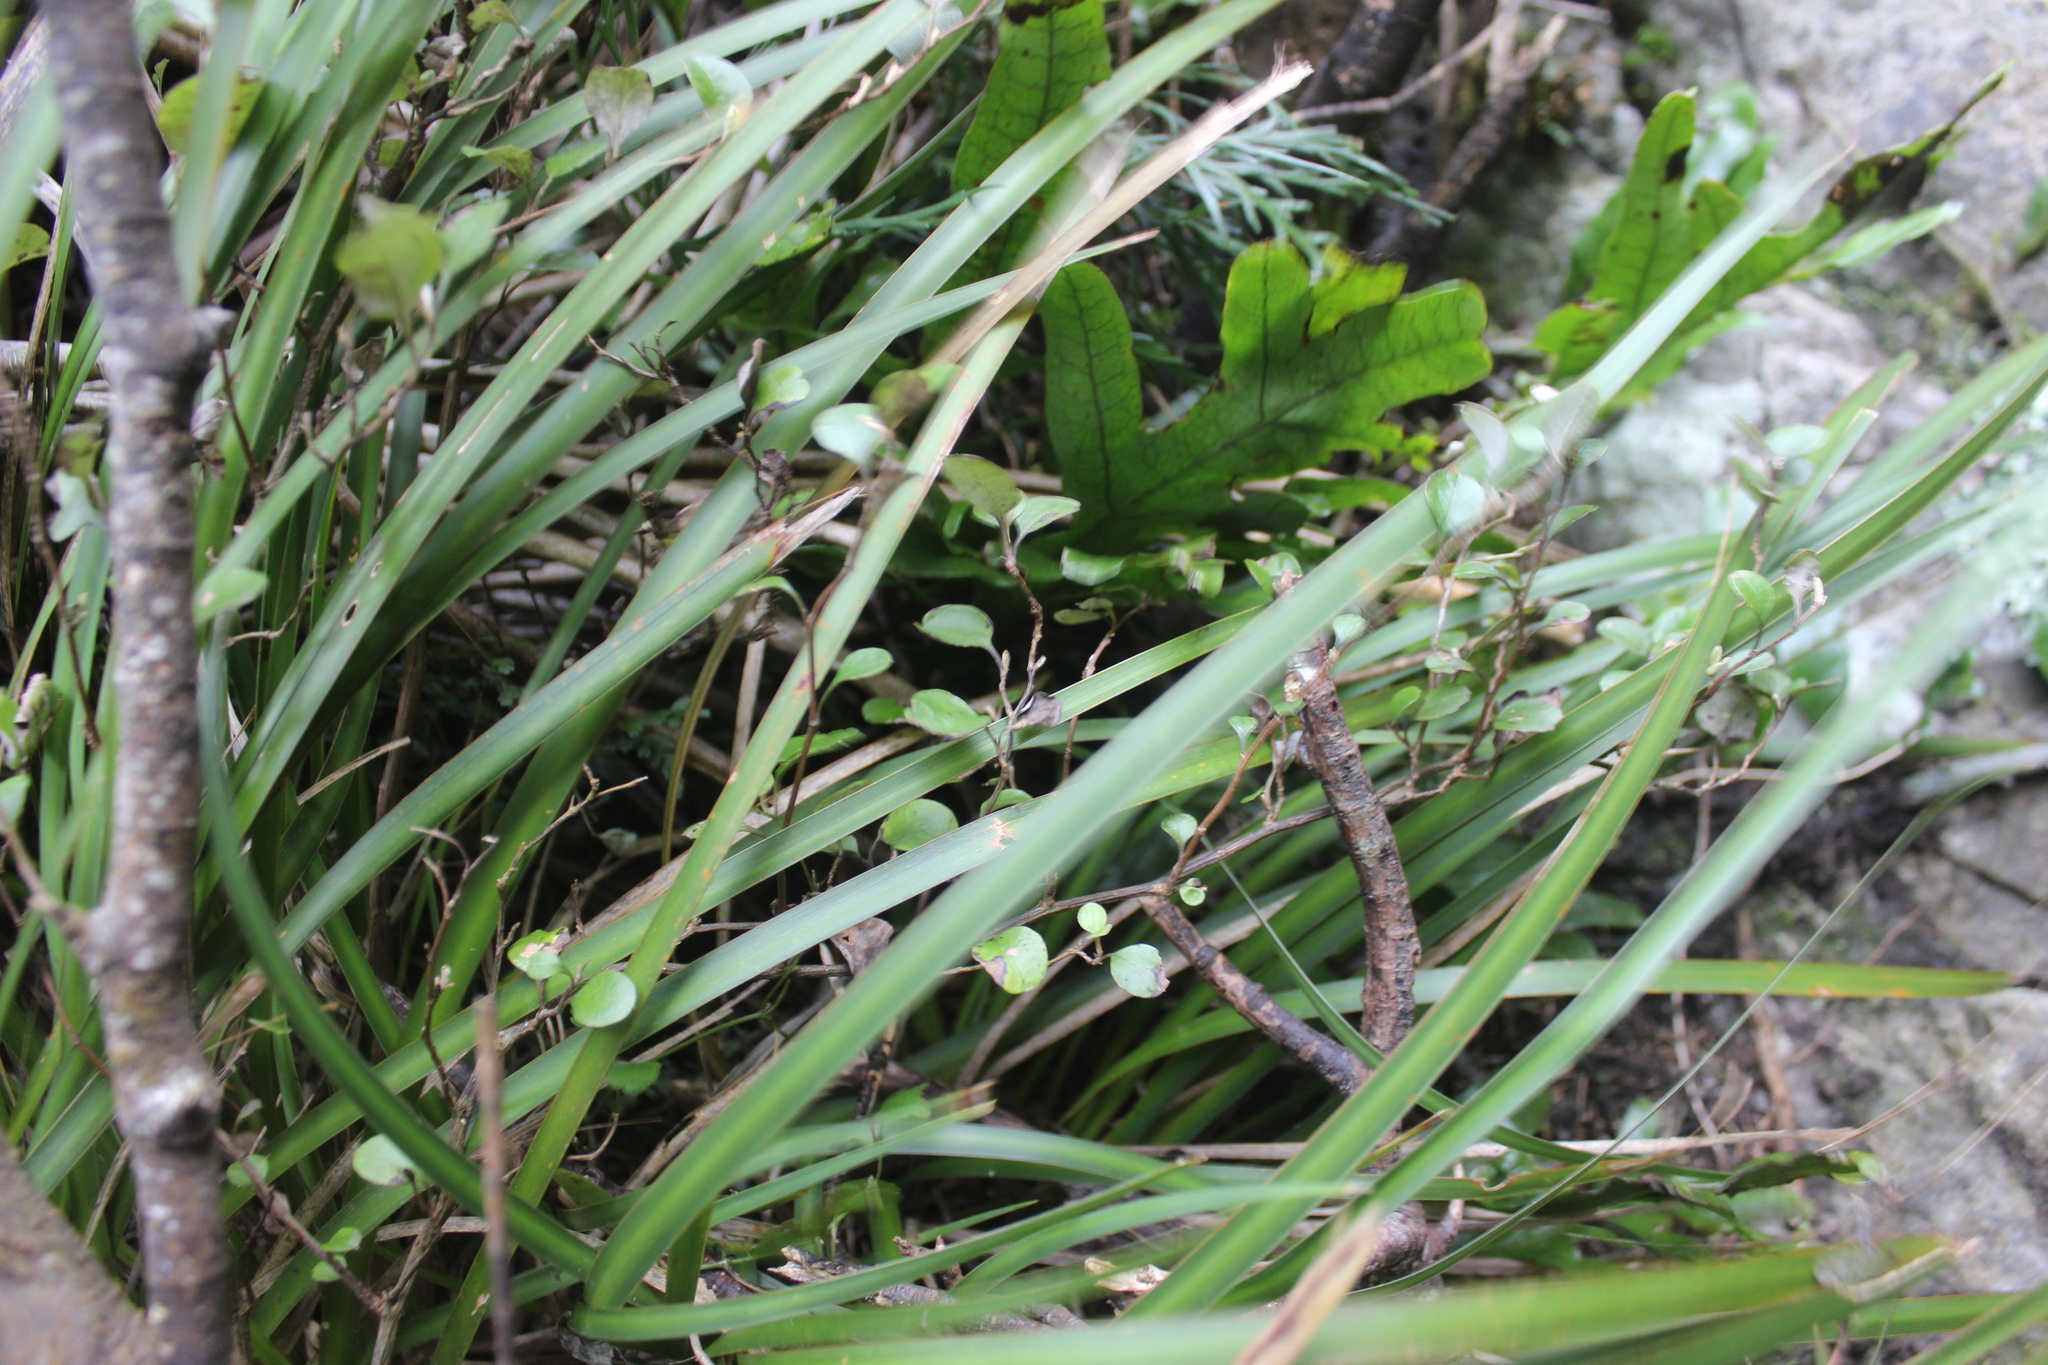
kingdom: Plantae
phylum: Tracheophyta
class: Magnoliopsida
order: Asterales
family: Asteraceae
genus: Ozothamnus
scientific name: Ozothamnus glomeratus
